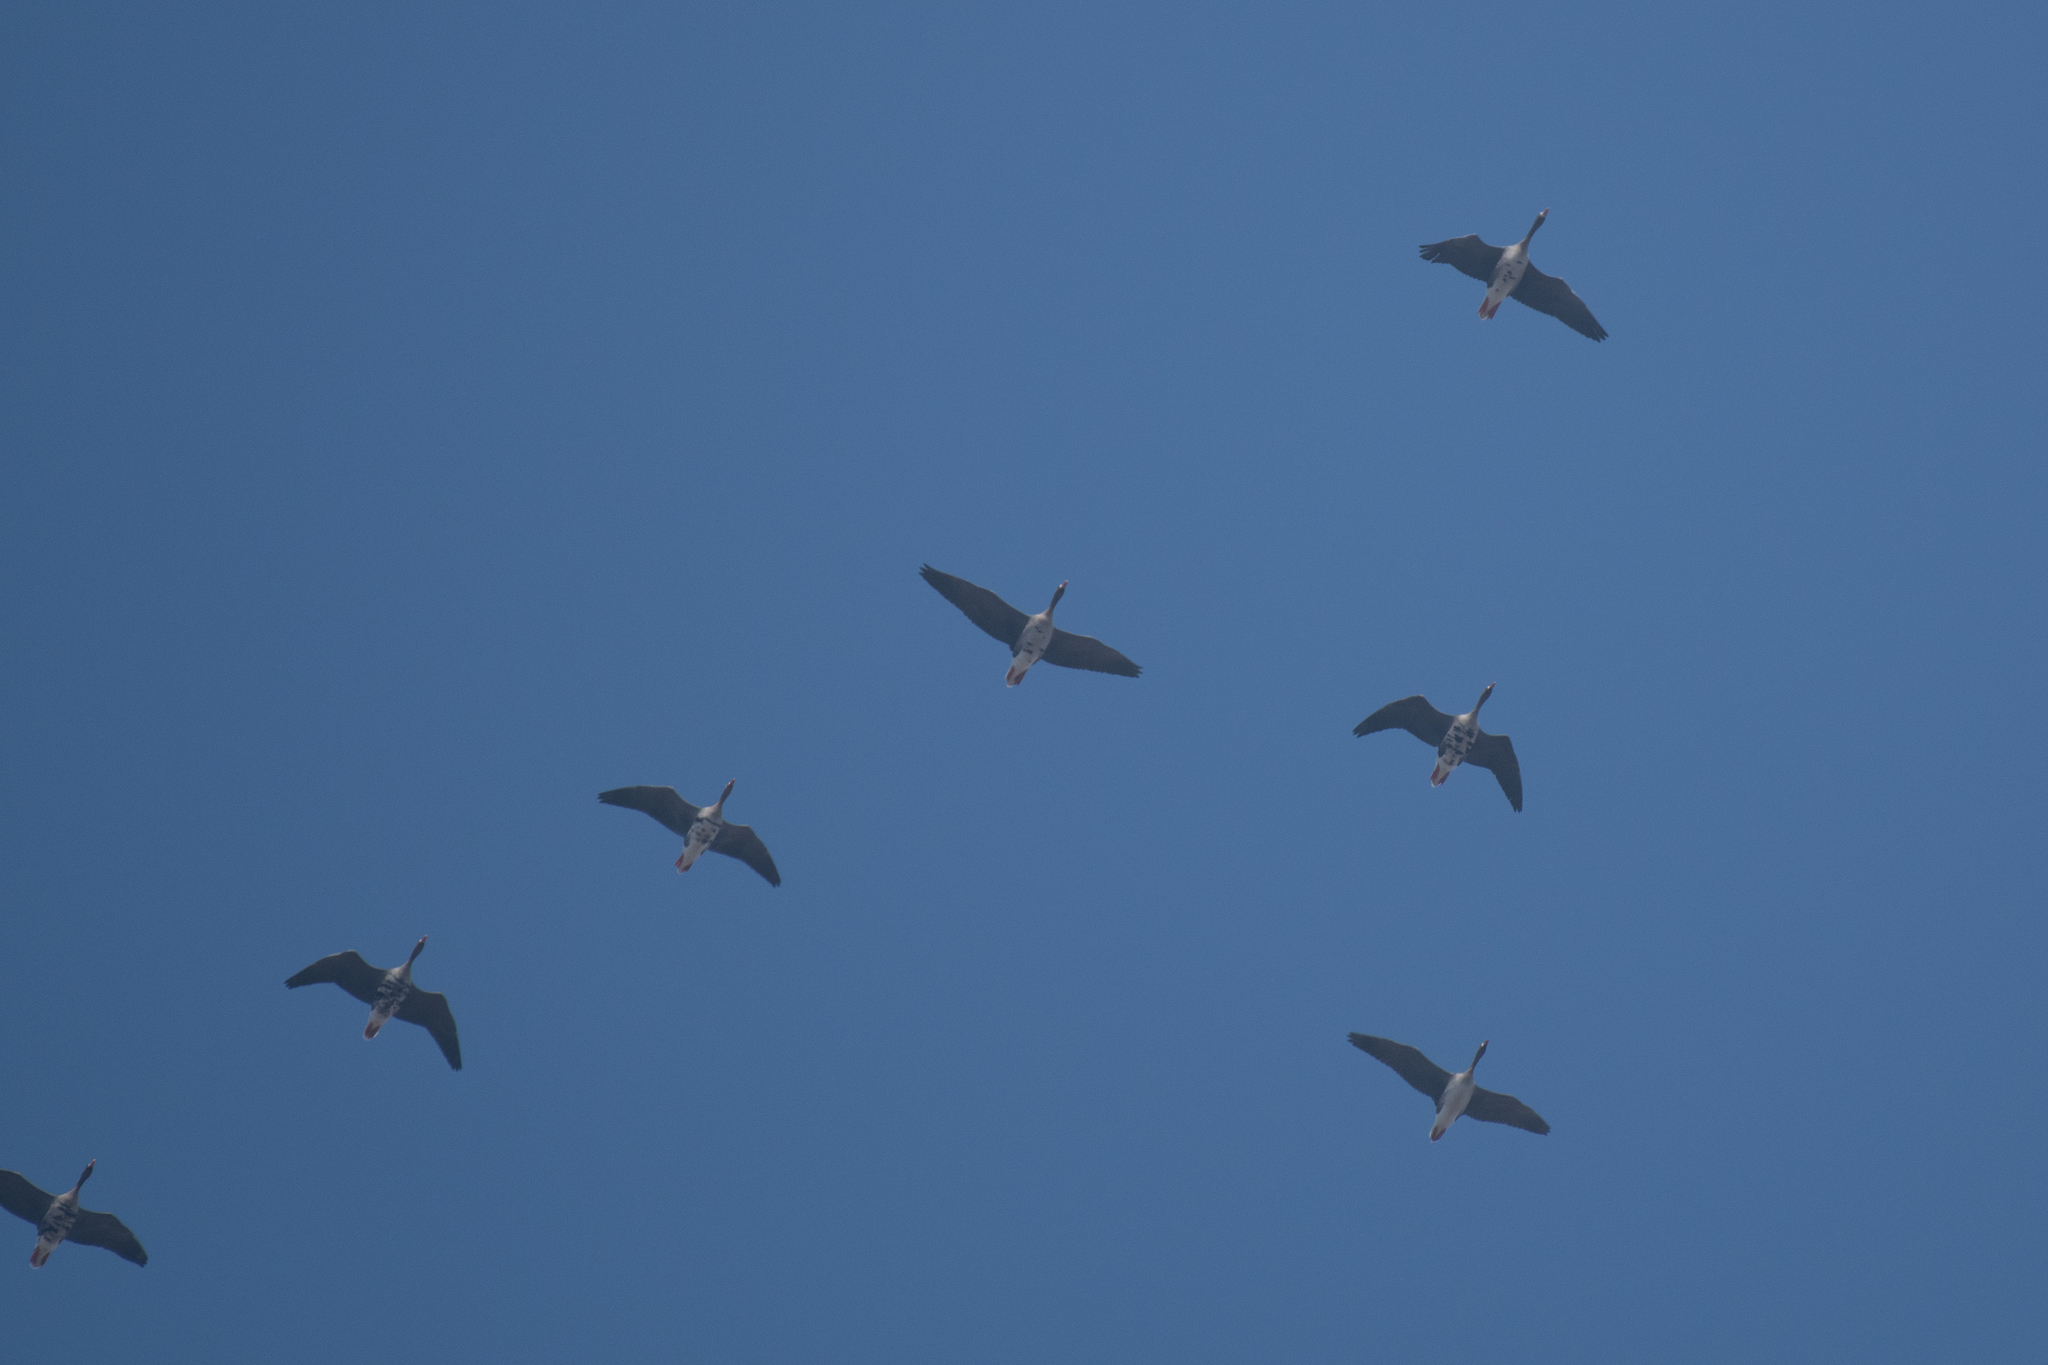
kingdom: Animalia
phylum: Chordata
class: Aves
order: Anseriformes
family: Anatidae
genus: Anser
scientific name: Anser albifrons
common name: Greater white-fronted goose
